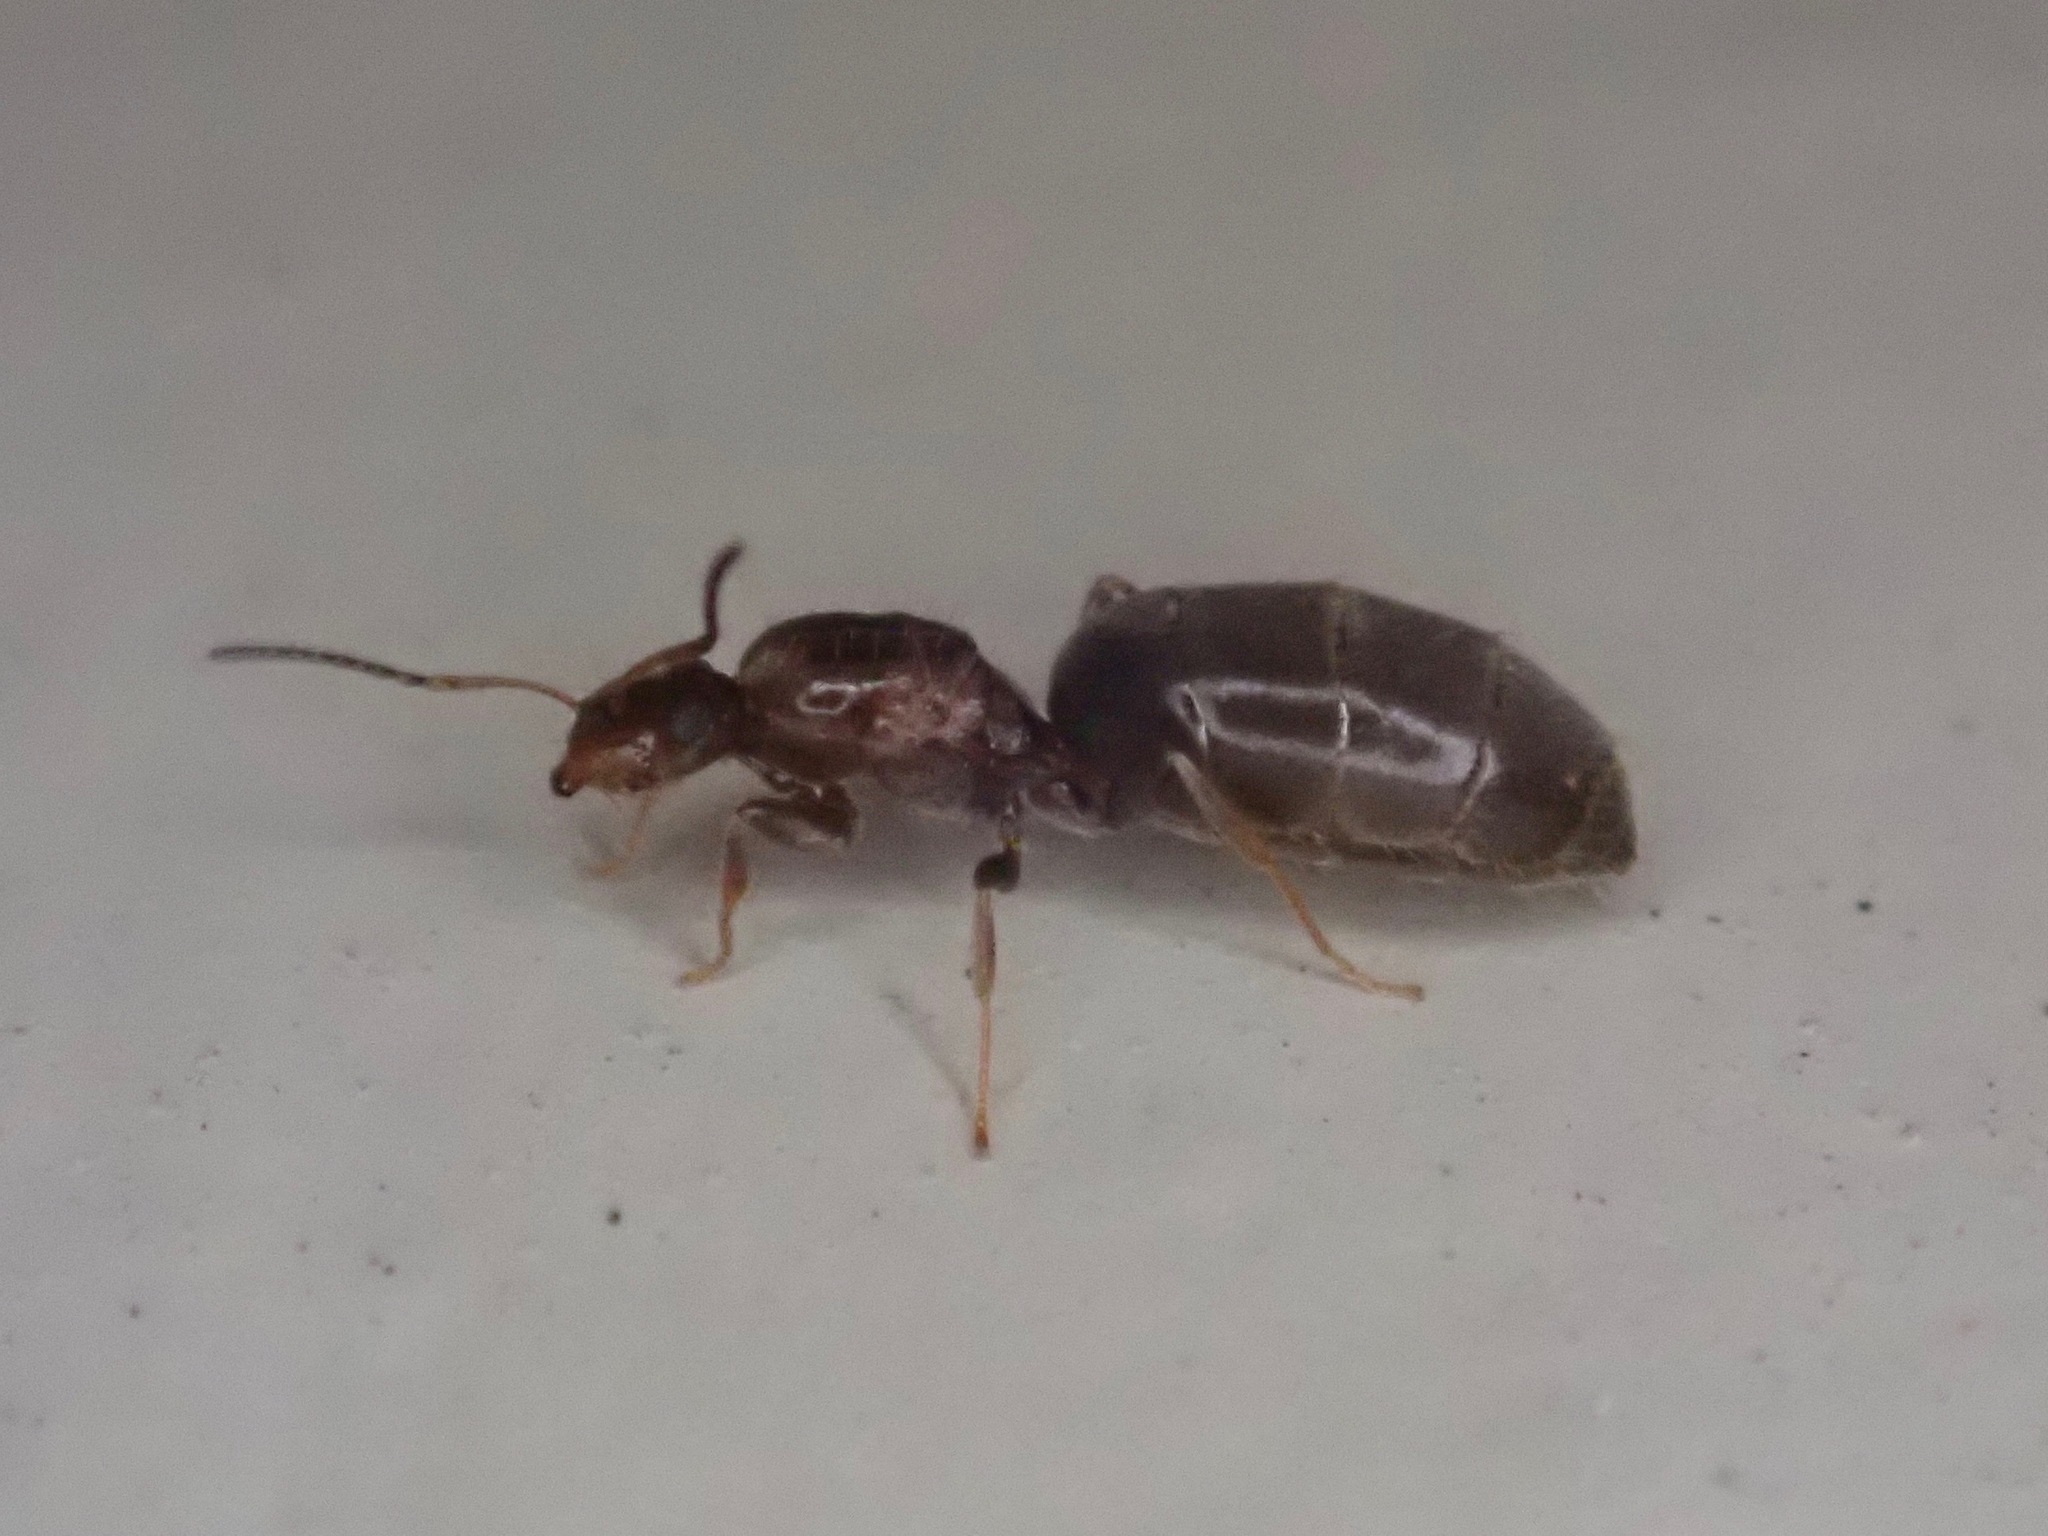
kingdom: Animalia
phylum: Arthropoda
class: Insecta
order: Hymenoptera
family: Formicidae
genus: Brachymyrmex
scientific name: Brachymyrmex patagonicus
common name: Dark rover ant
